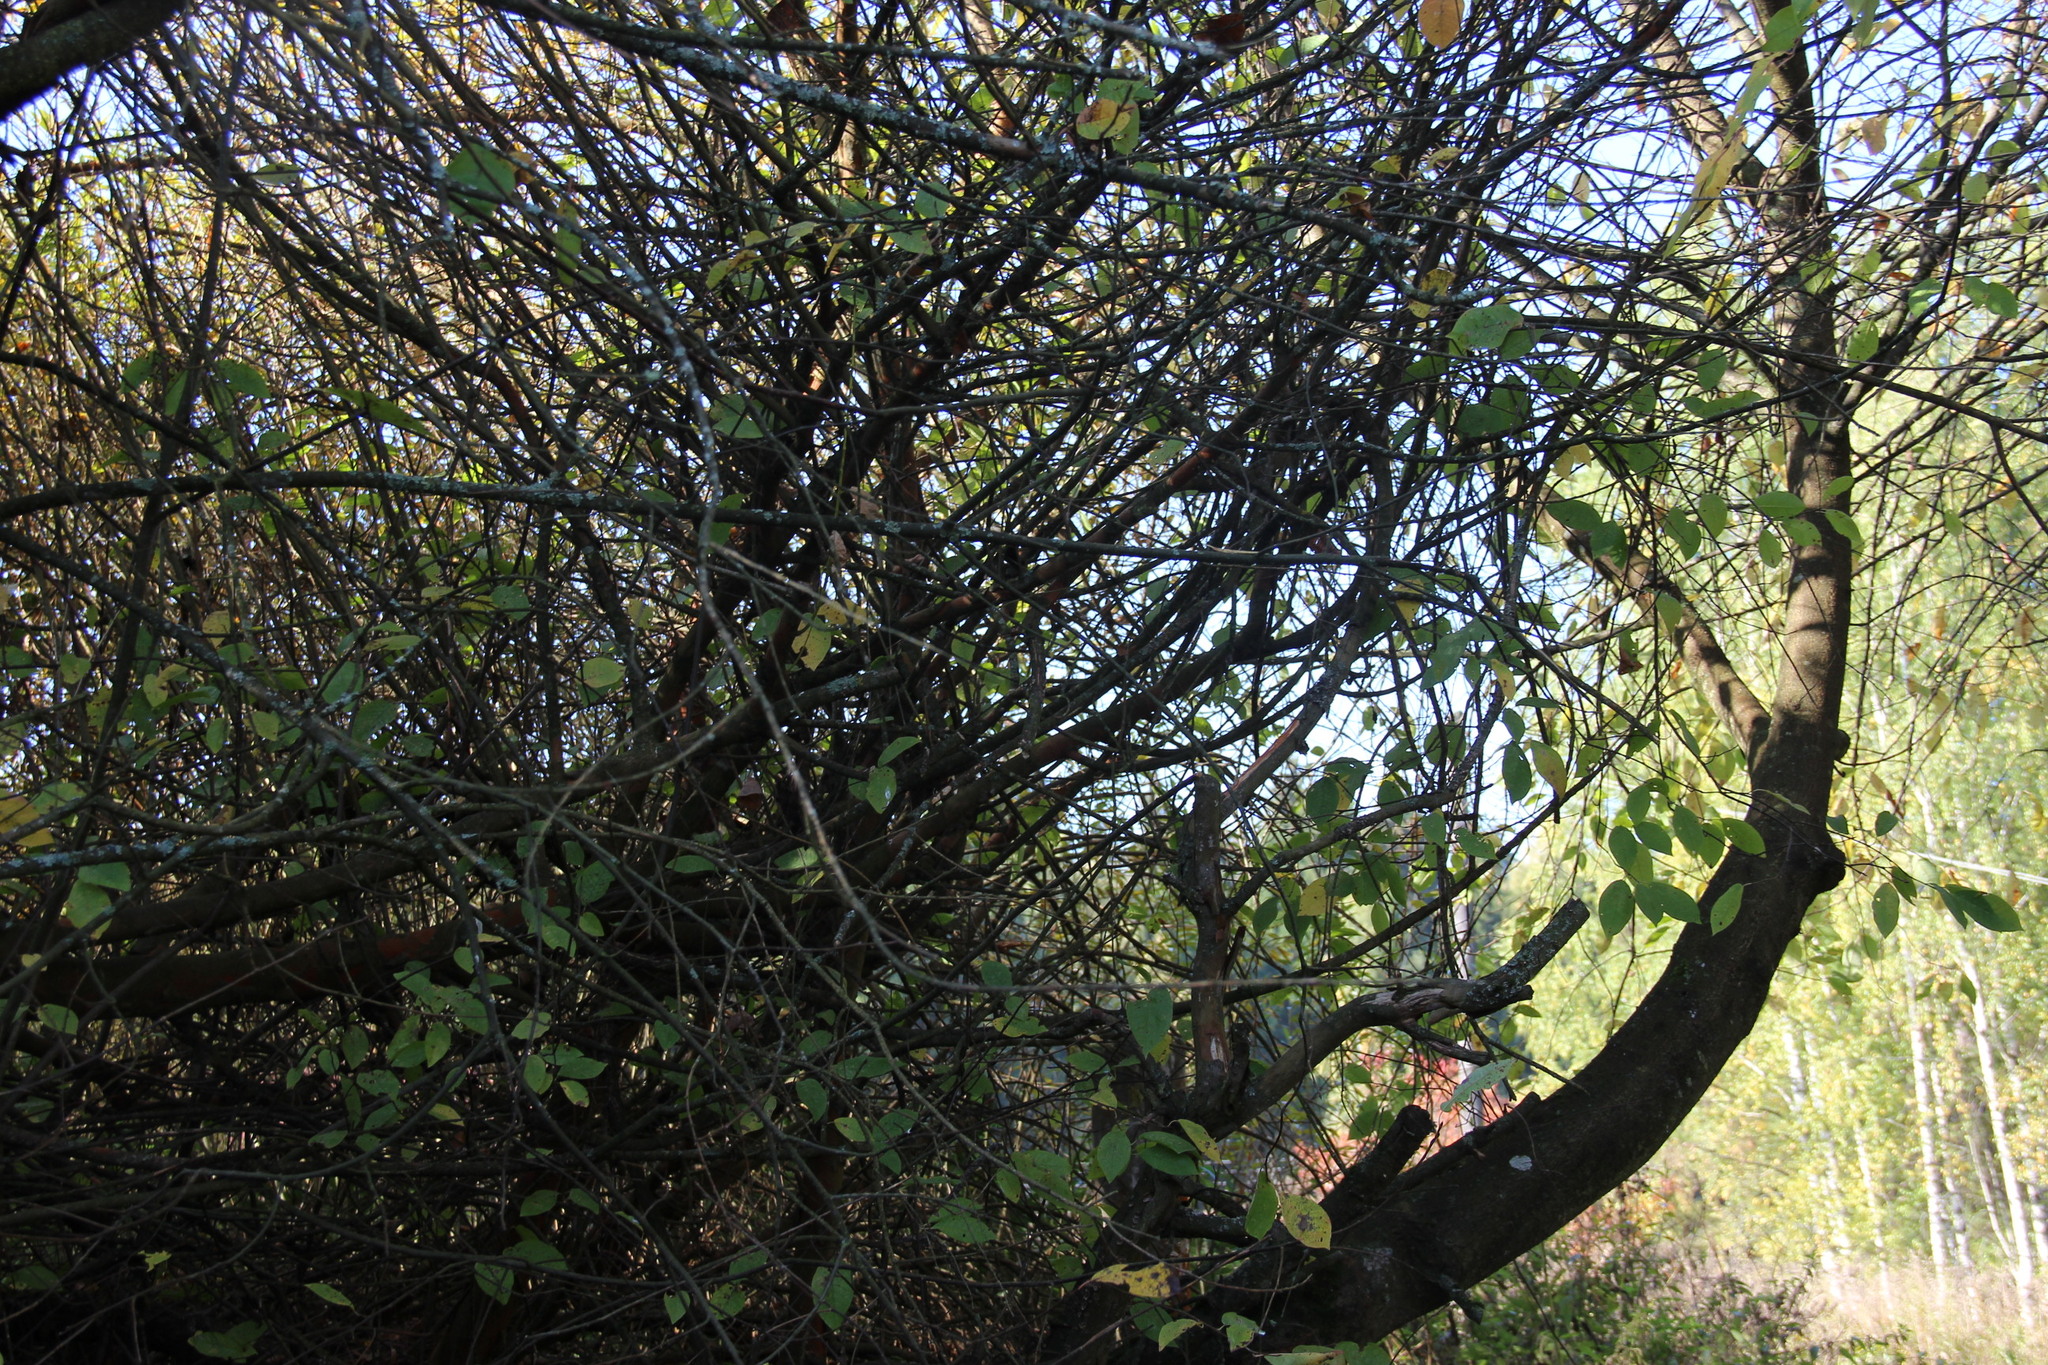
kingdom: Plantae
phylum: Tracheophyta
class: Magnoliopsida
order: Rosales
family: Rosaceae
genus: Prunus
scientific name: Prunus padus
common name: Bird cherry
